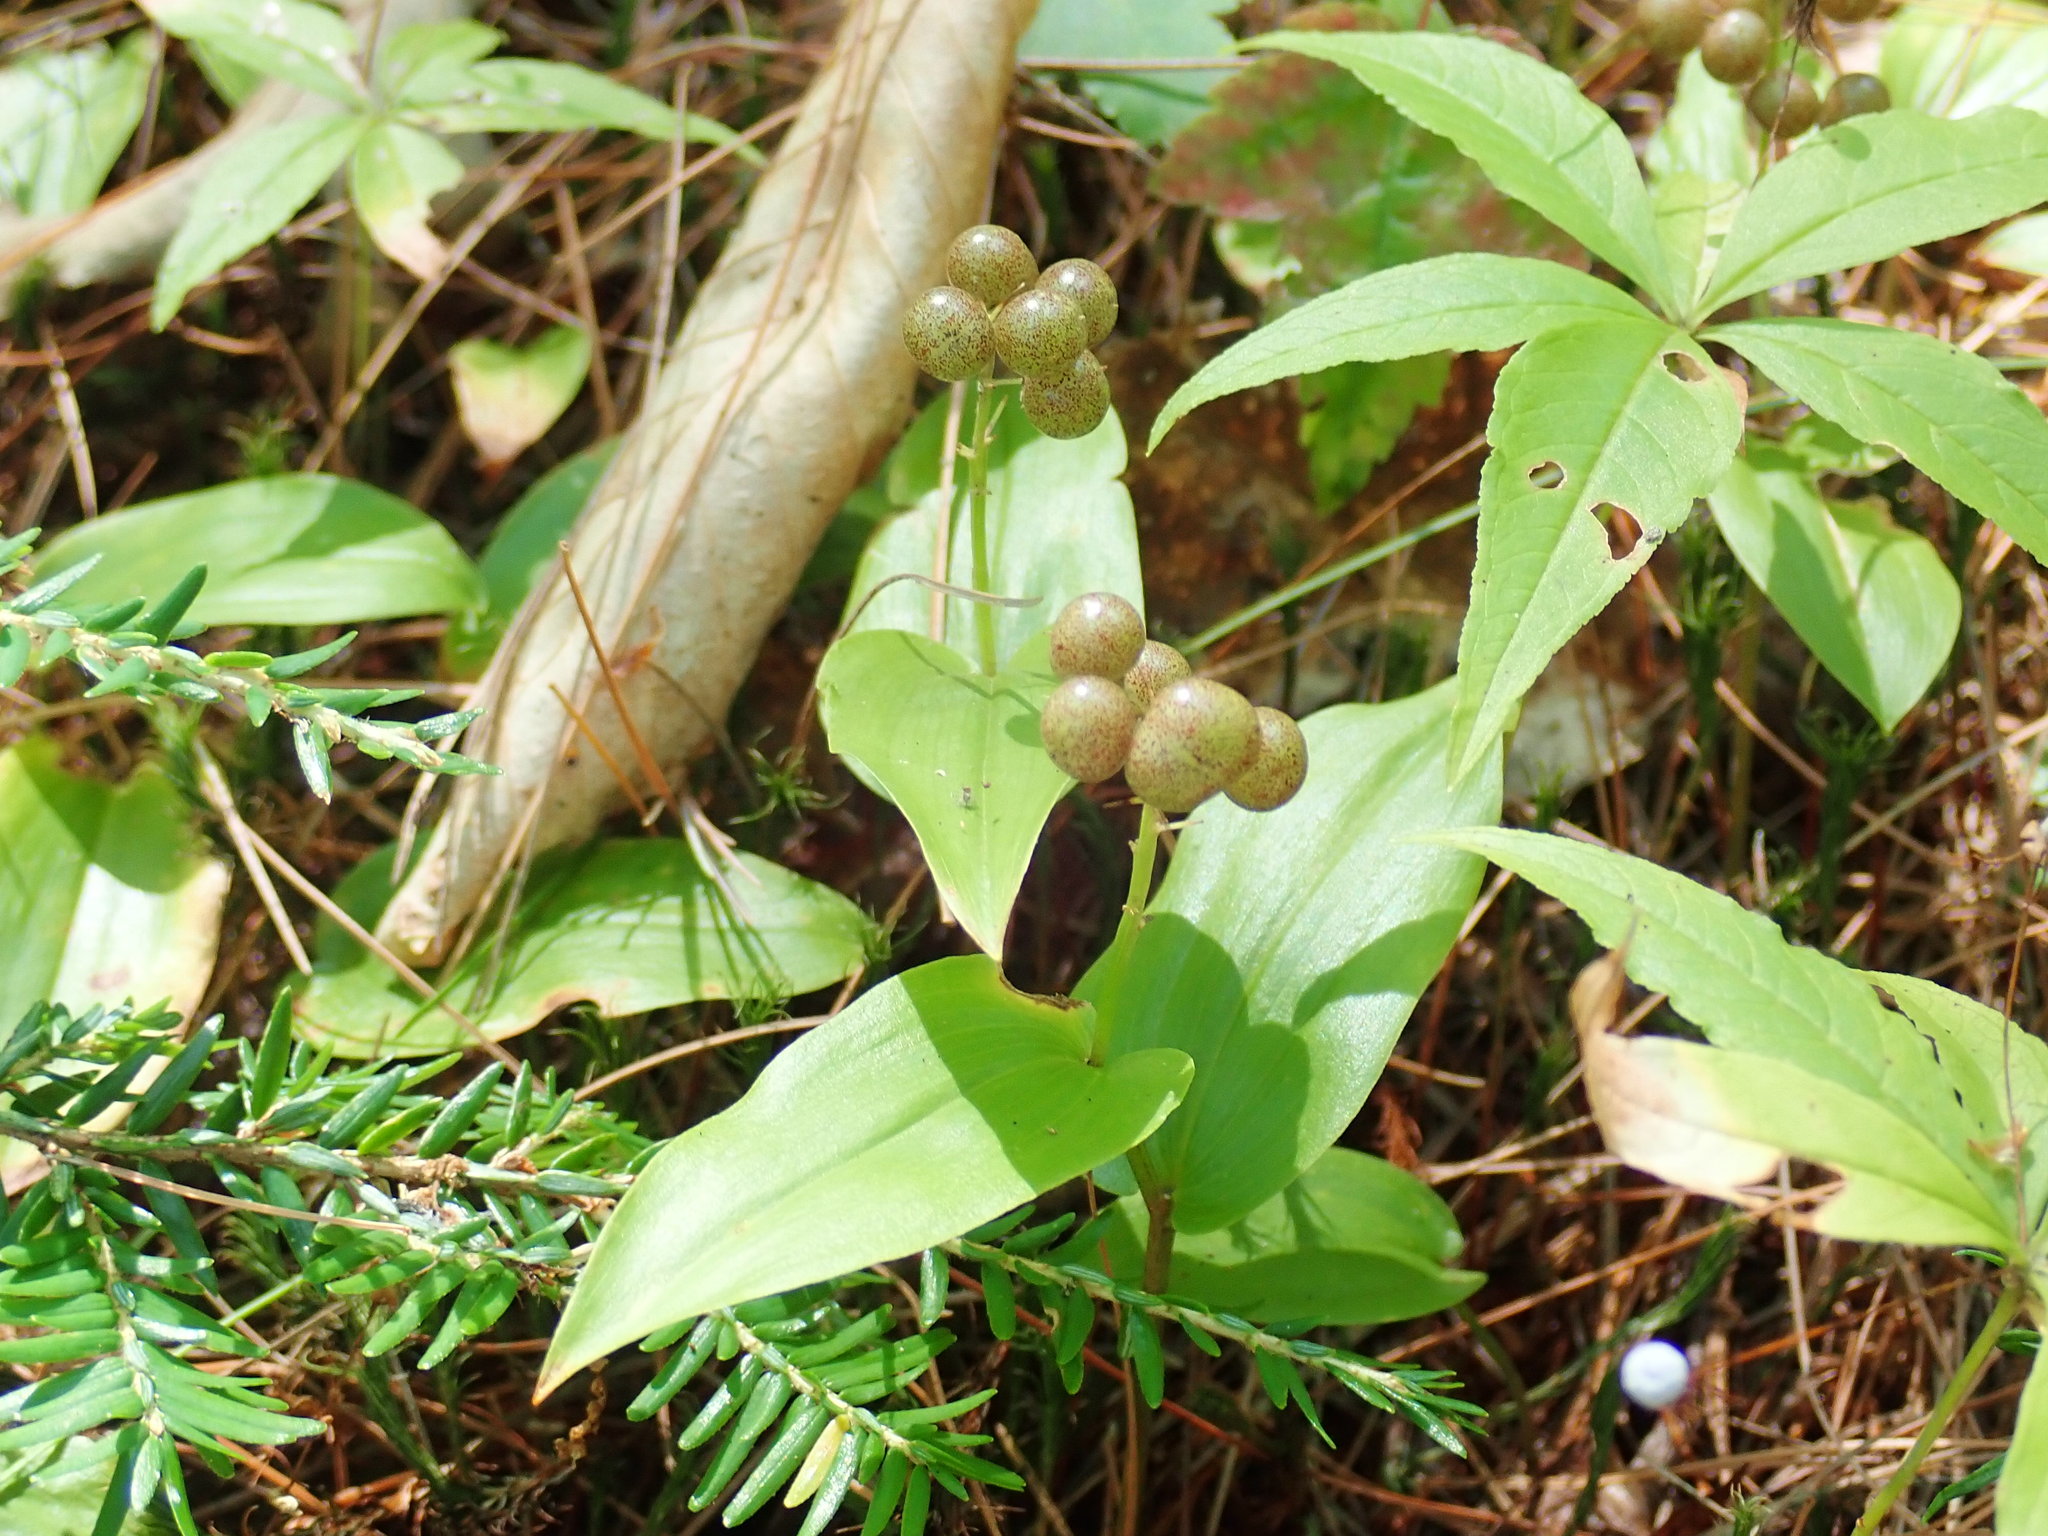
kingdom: Plantae
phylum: Tracheophyta
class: Liliopsida
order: Asparagales
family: Asparagaceae
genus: Maianthemum
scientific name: Maianthemum canadense
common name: False lily-of-the-valley
